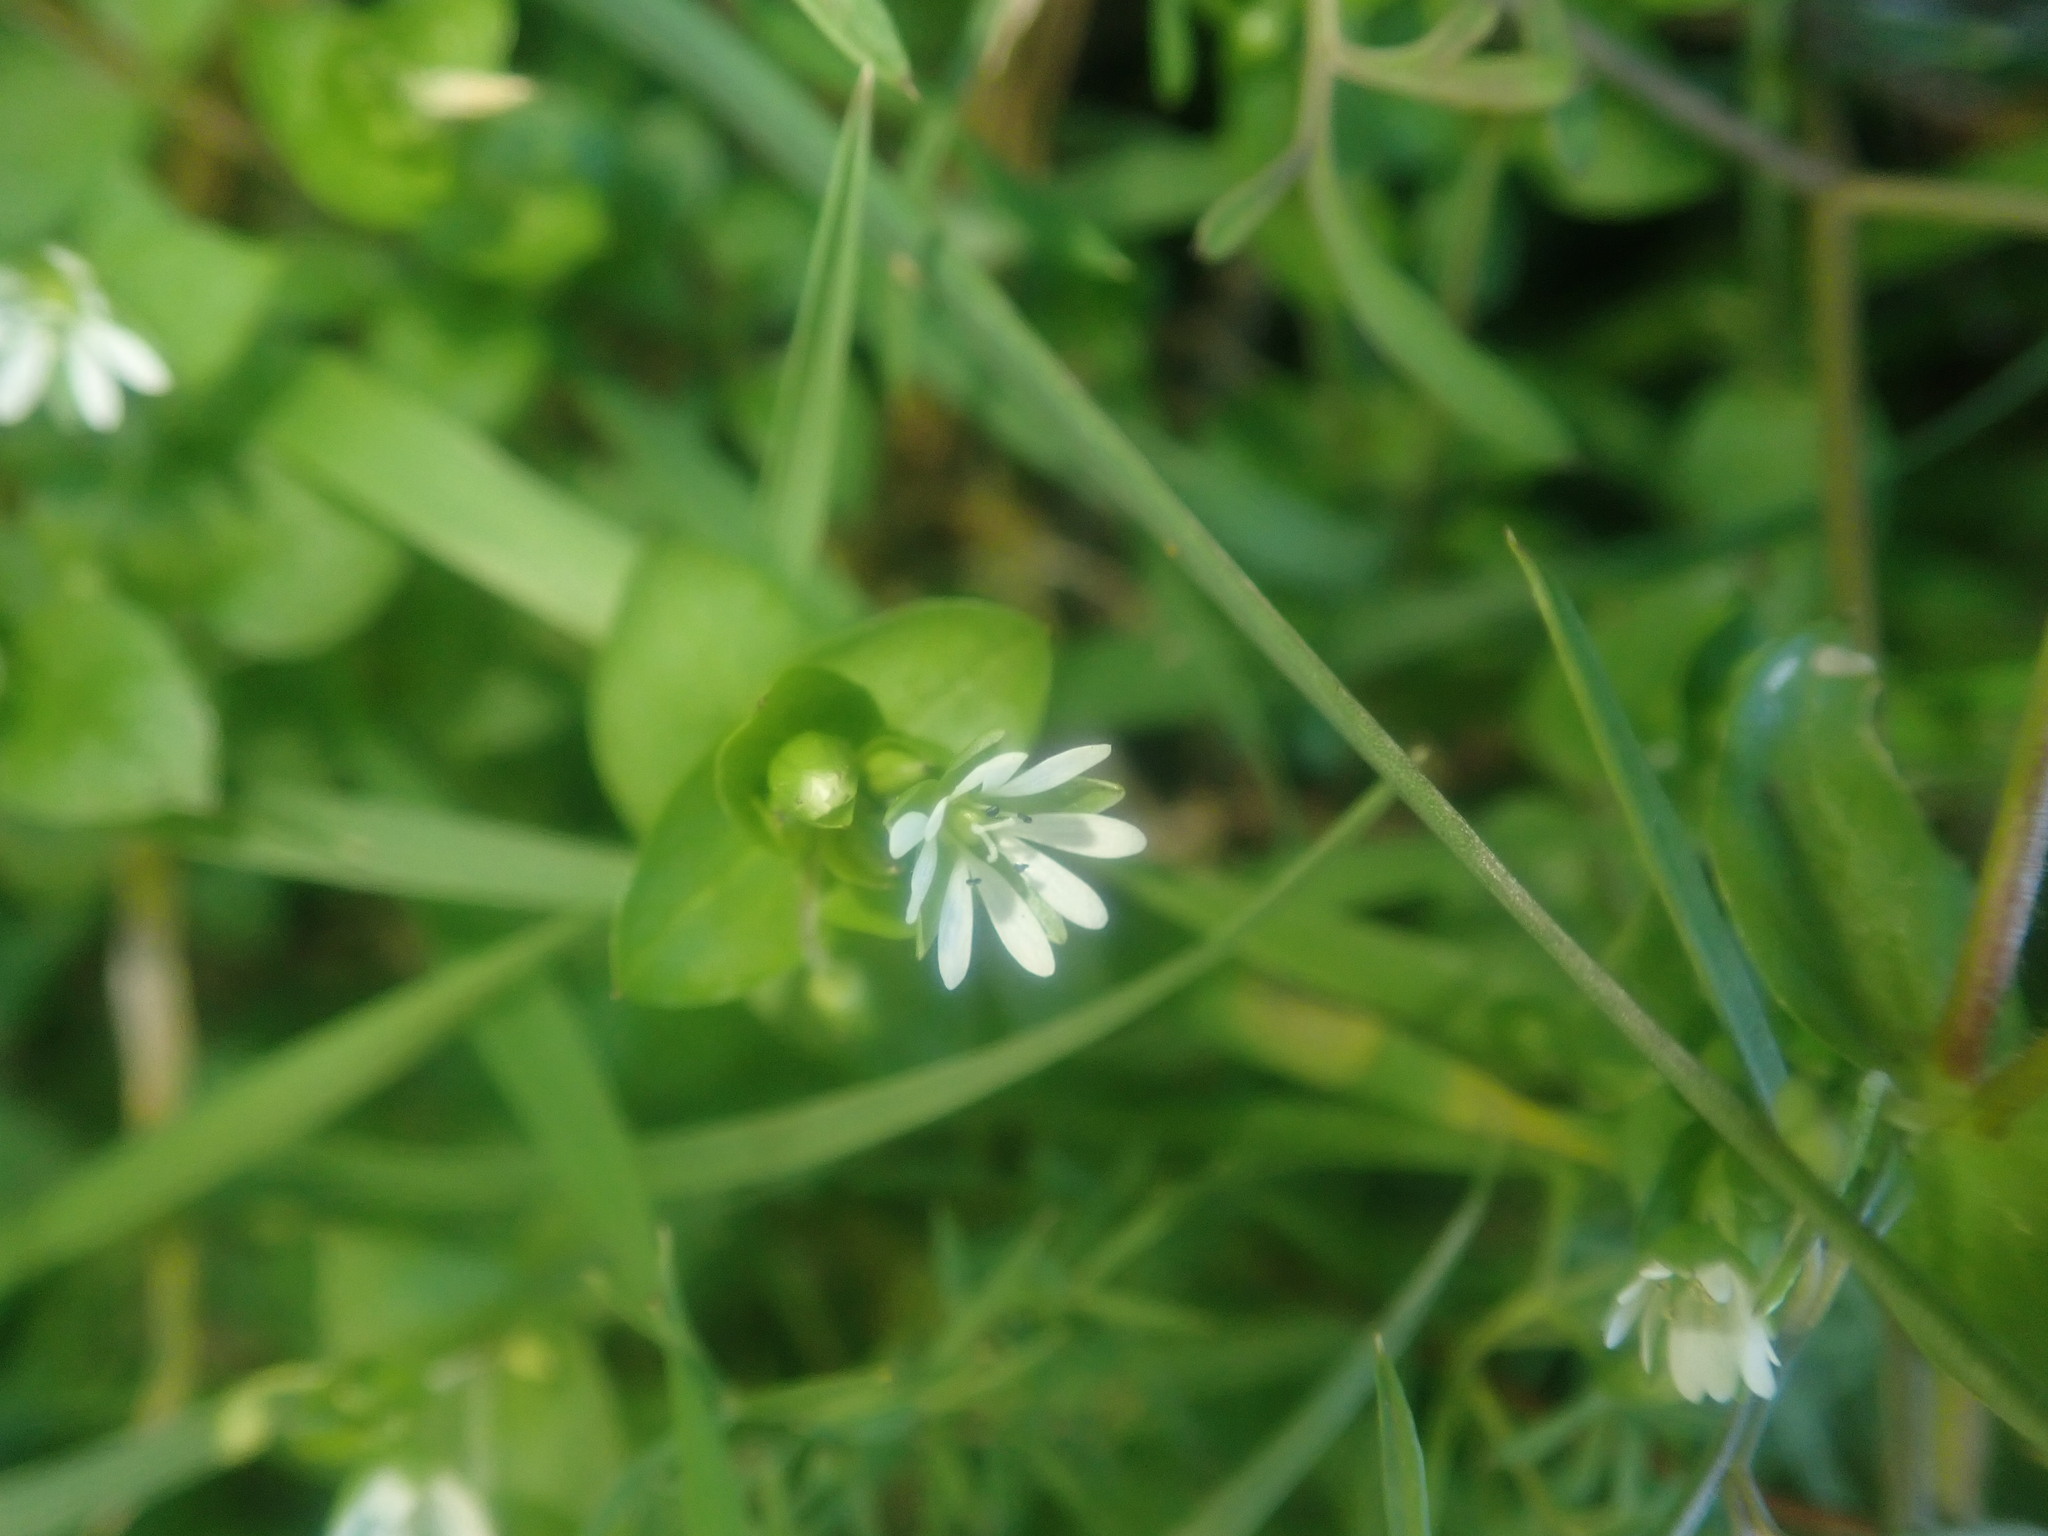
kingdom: Plantae
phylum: Tracheophyta
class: Magnoliopsida
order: Caryophyllales
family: Caryophyllaceae
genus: Stellaria
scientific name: Stellaria media
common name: Common chickweed
